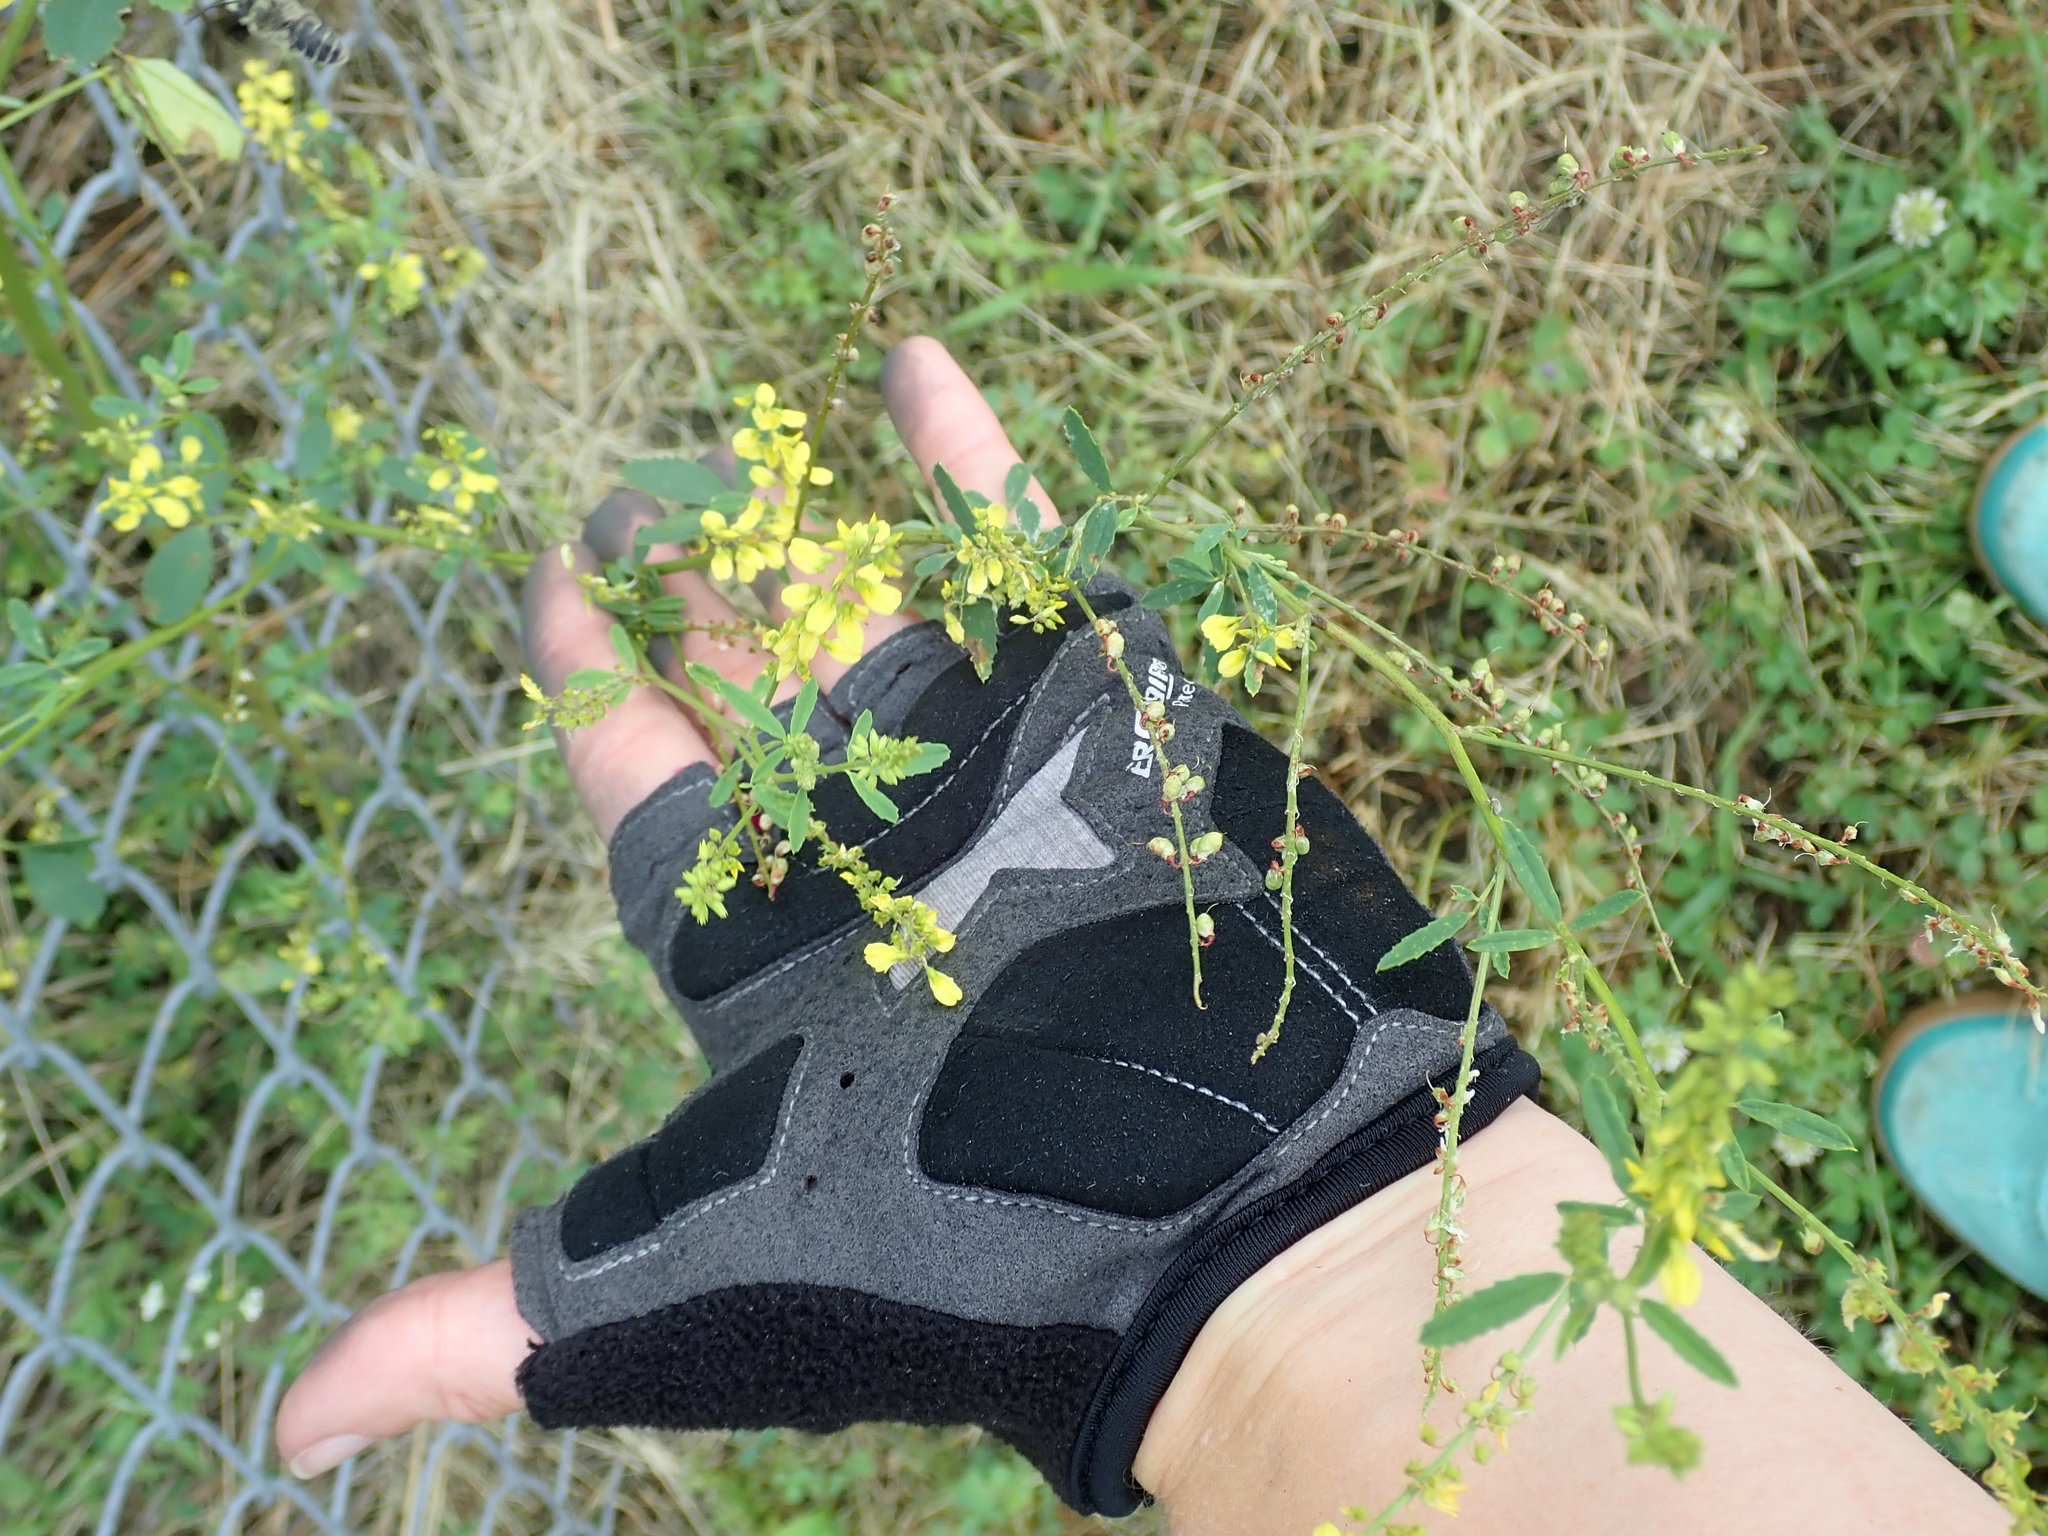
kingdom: Plantae
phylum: Tracheophyta
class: Magnoliopsida
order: Fabales
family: Fabaceae
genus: Melilotus
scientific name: Melilotus officinalis
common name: Sweetclover
